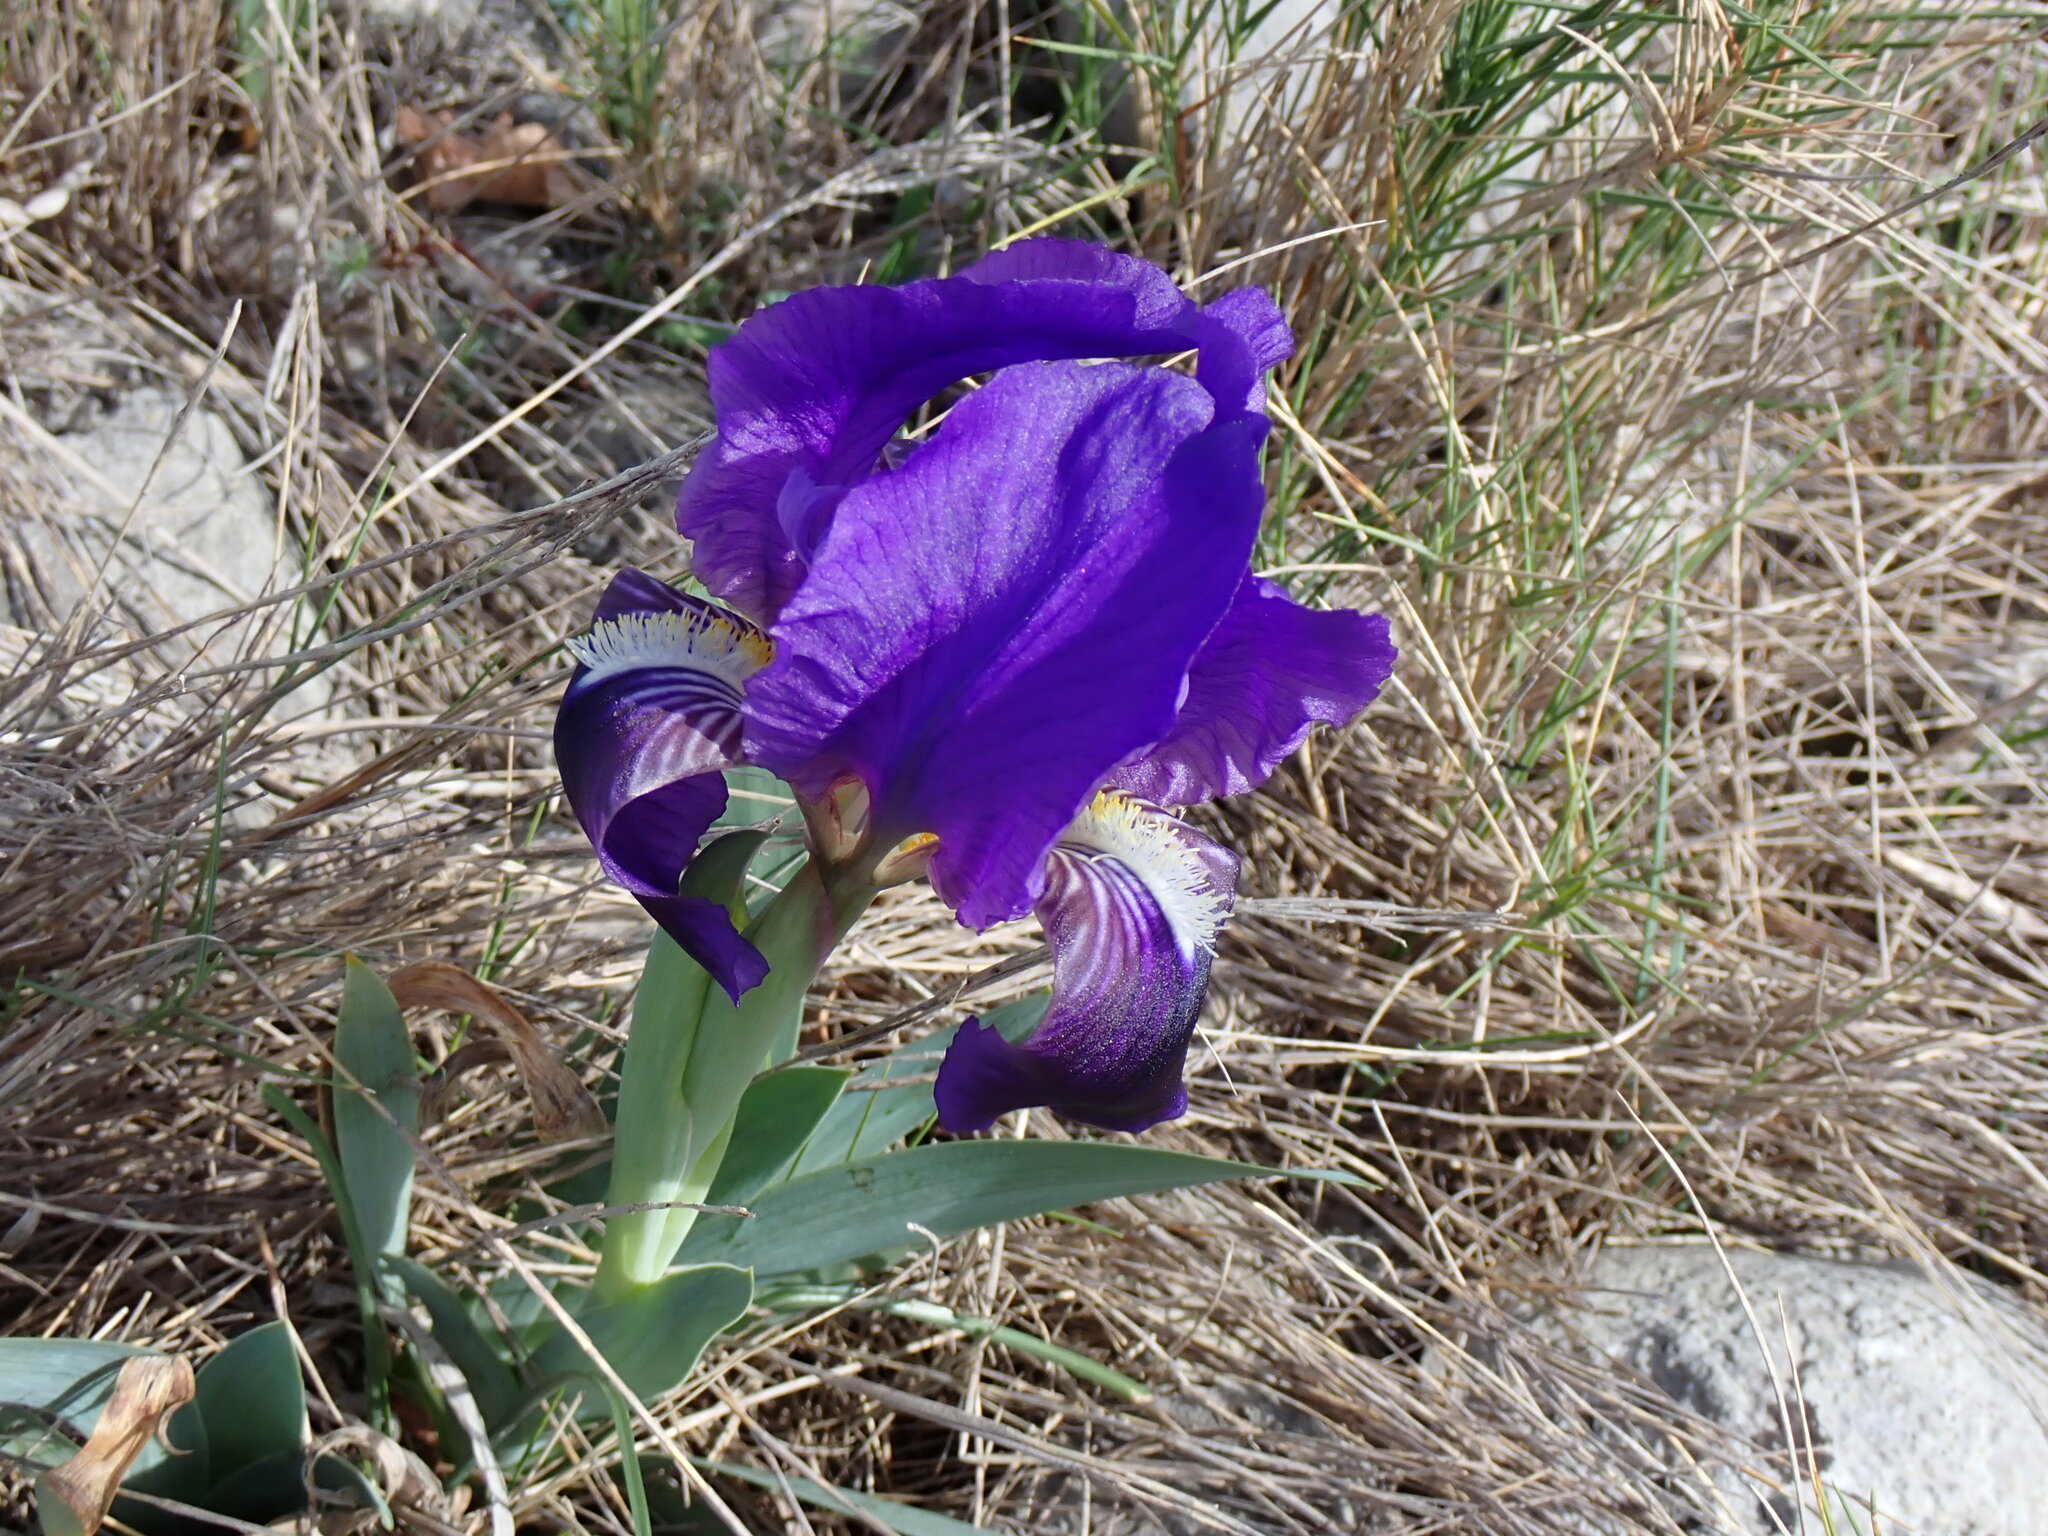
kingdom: Plantae
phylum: Tracheophyta
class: Liliopsida
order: Asparagales
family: Iridaceae
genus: Iris
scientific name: Iris lutescens
